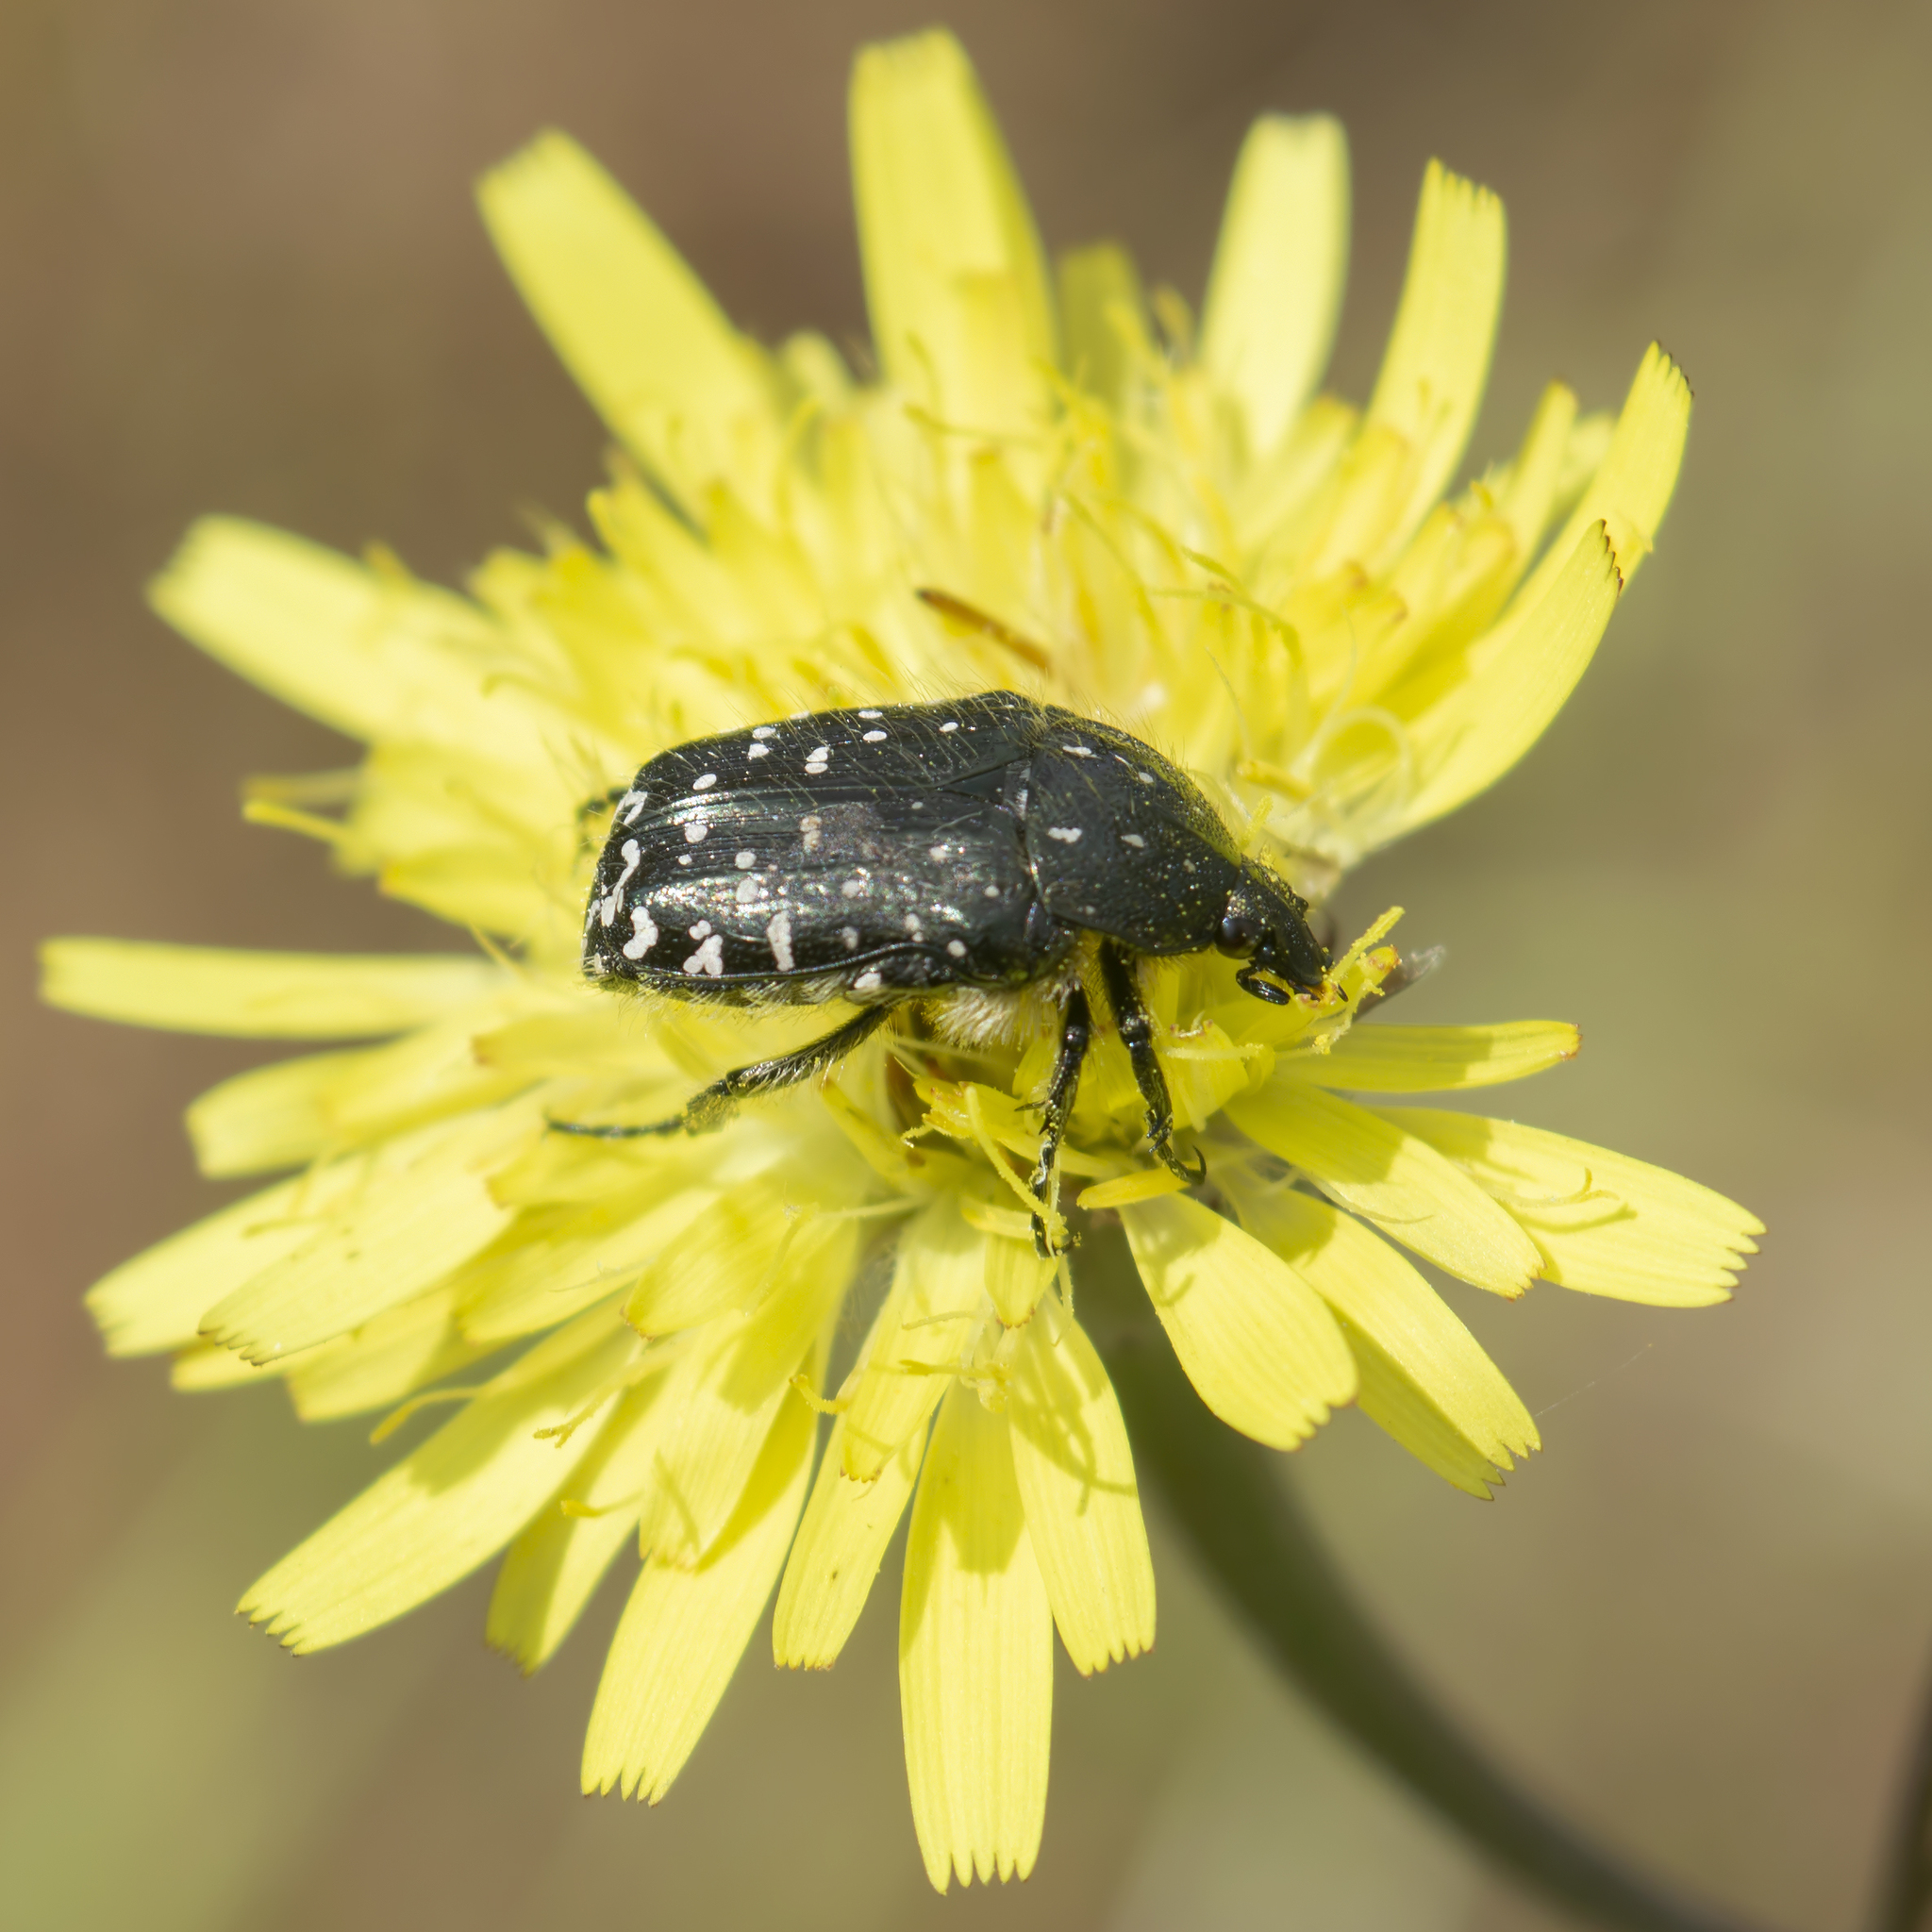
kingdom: Animalia
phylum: Arthropoda
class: Insecta
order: Coleoptera
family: Scarabaeidae
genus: Oxythyrea
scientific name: Oxythyrea funesta
